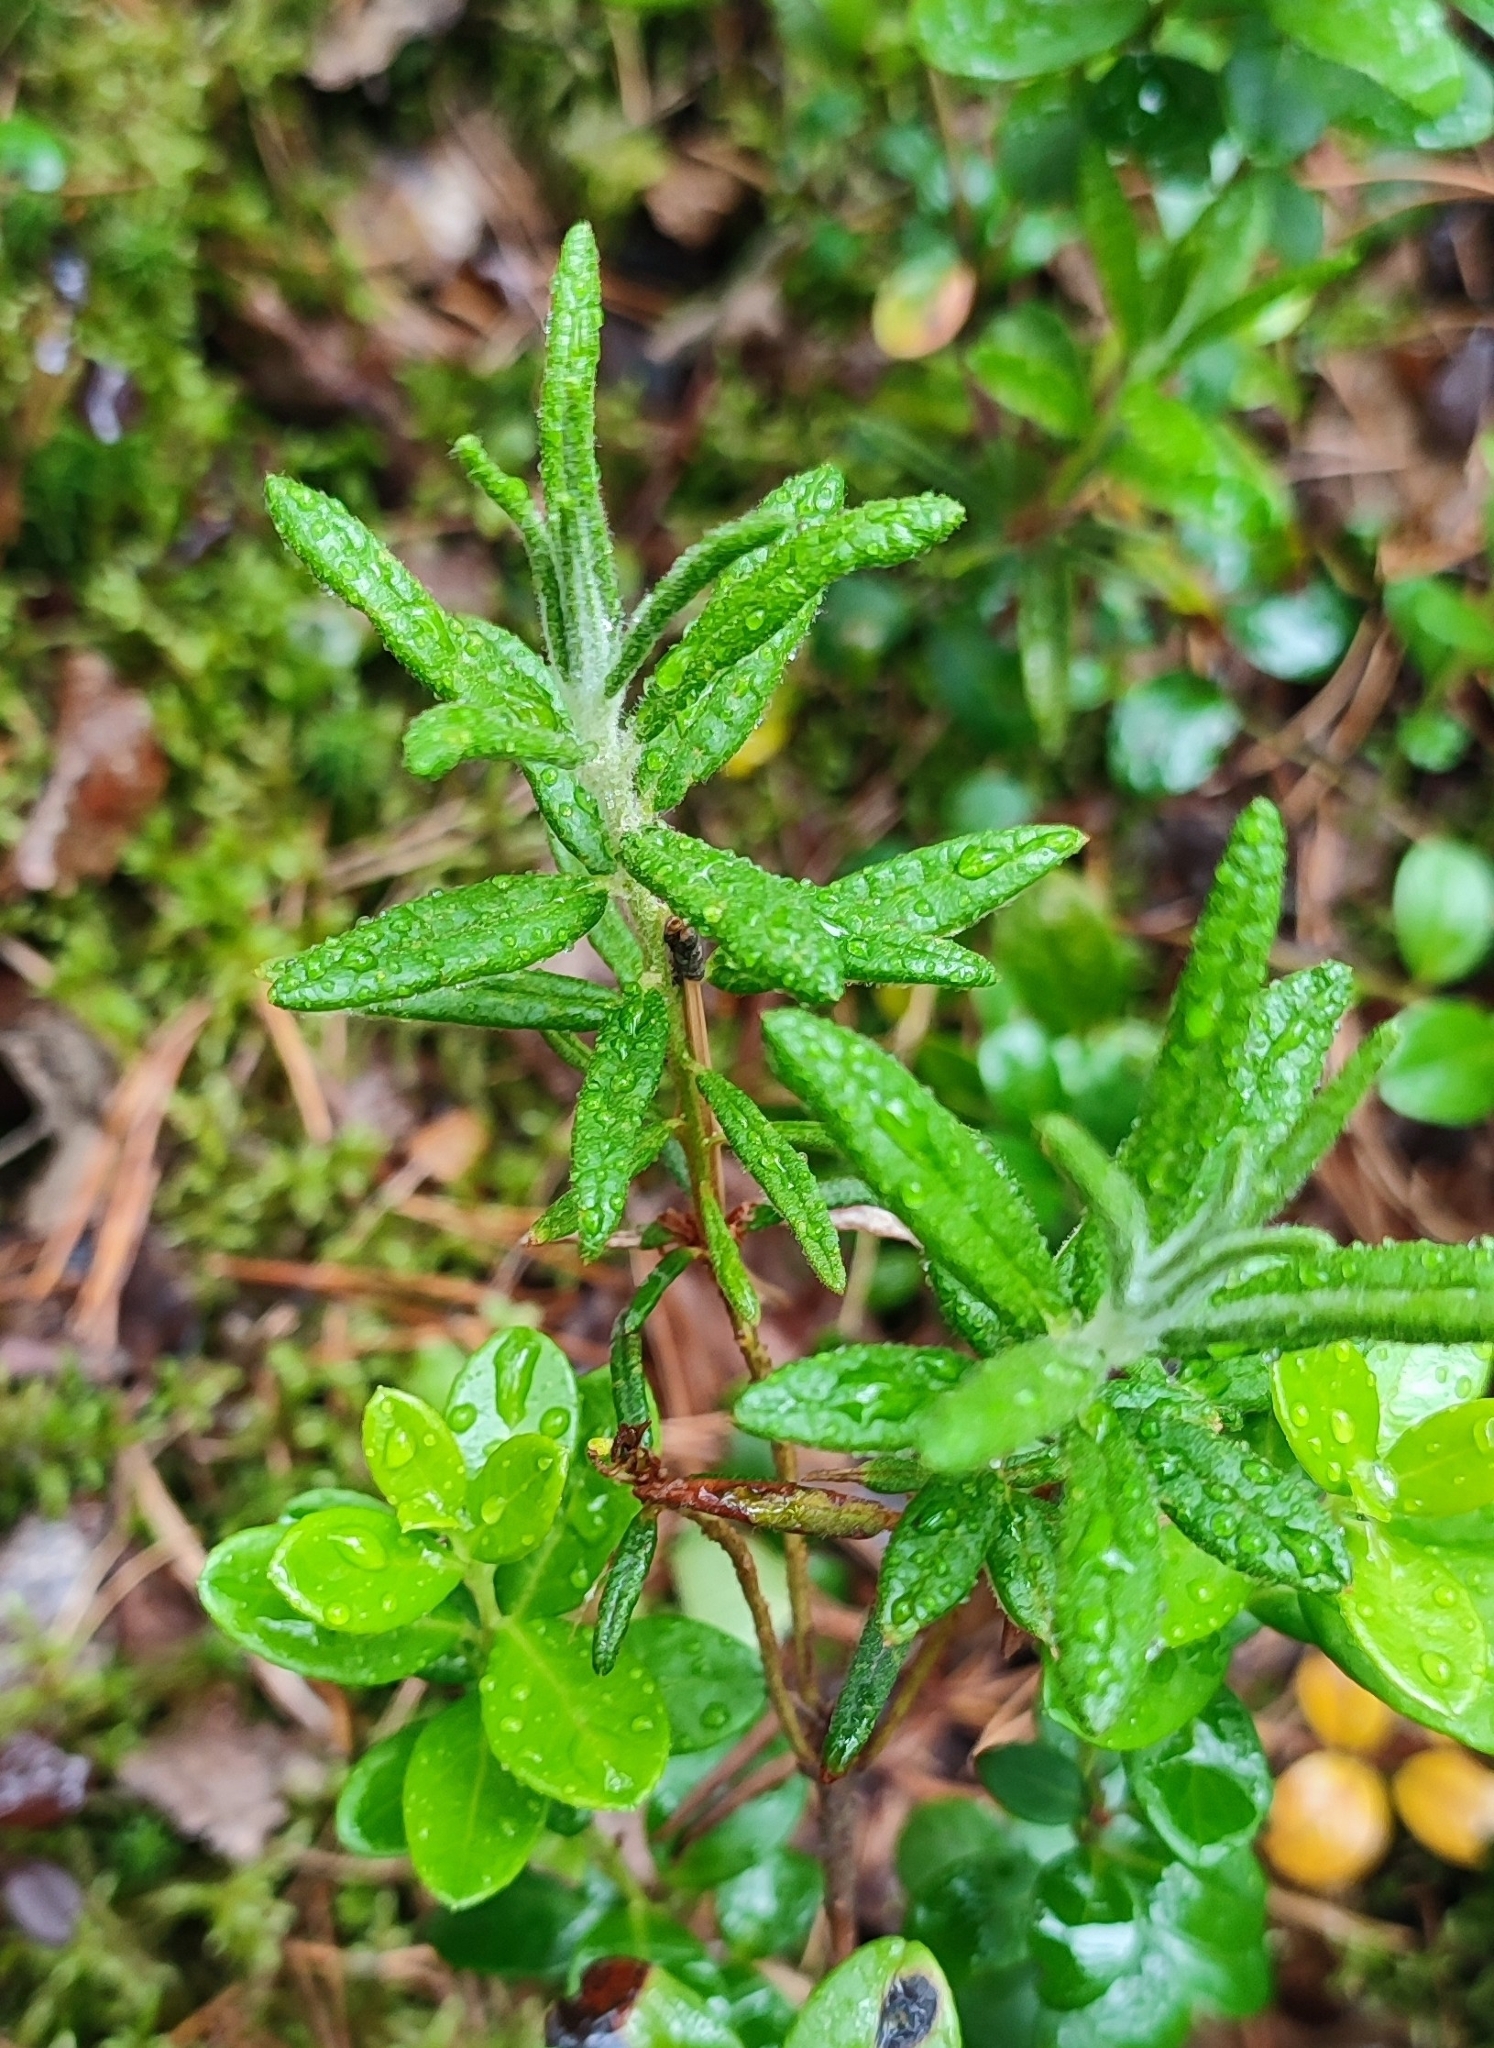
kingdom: Plantae
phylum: Tracheophyta
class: Magnoliopsida
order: Ericales
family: Ericaceae
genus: Rhododendron
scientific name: Rhododendron tomentosum
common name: Marsh labrador tea
